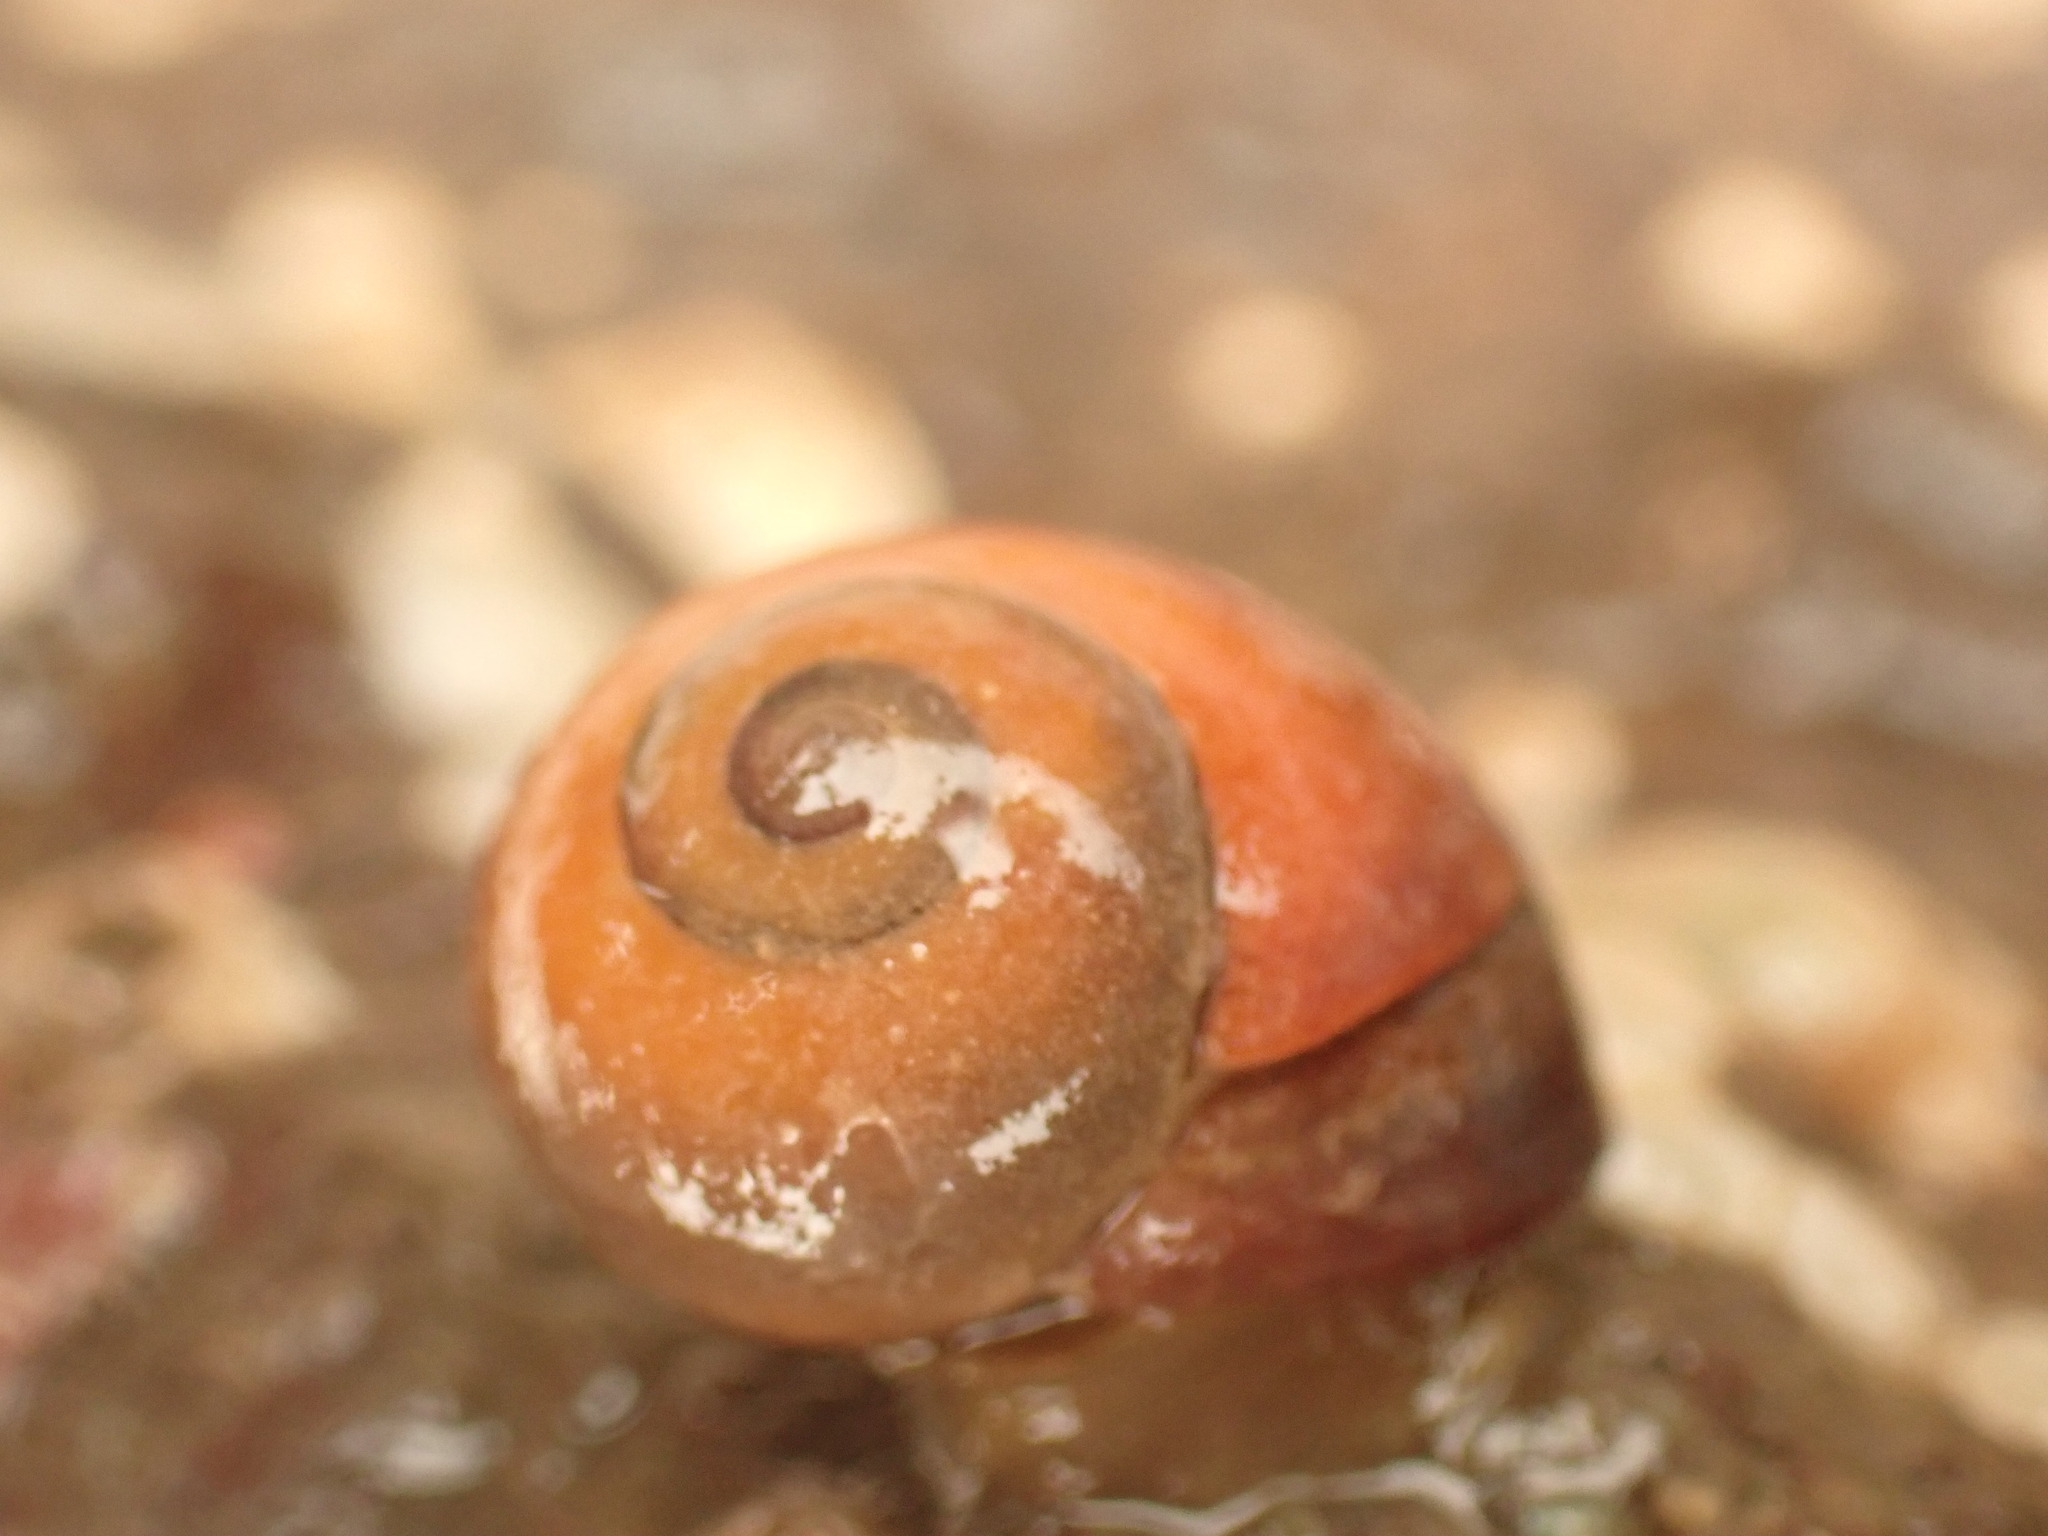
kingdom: Animalia
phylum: Mollusca
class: Gastropoda
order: Littorinimorpha
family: Littorinidae
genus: Littorina
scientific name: Littorina obtusata
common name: Flat periwinkle
